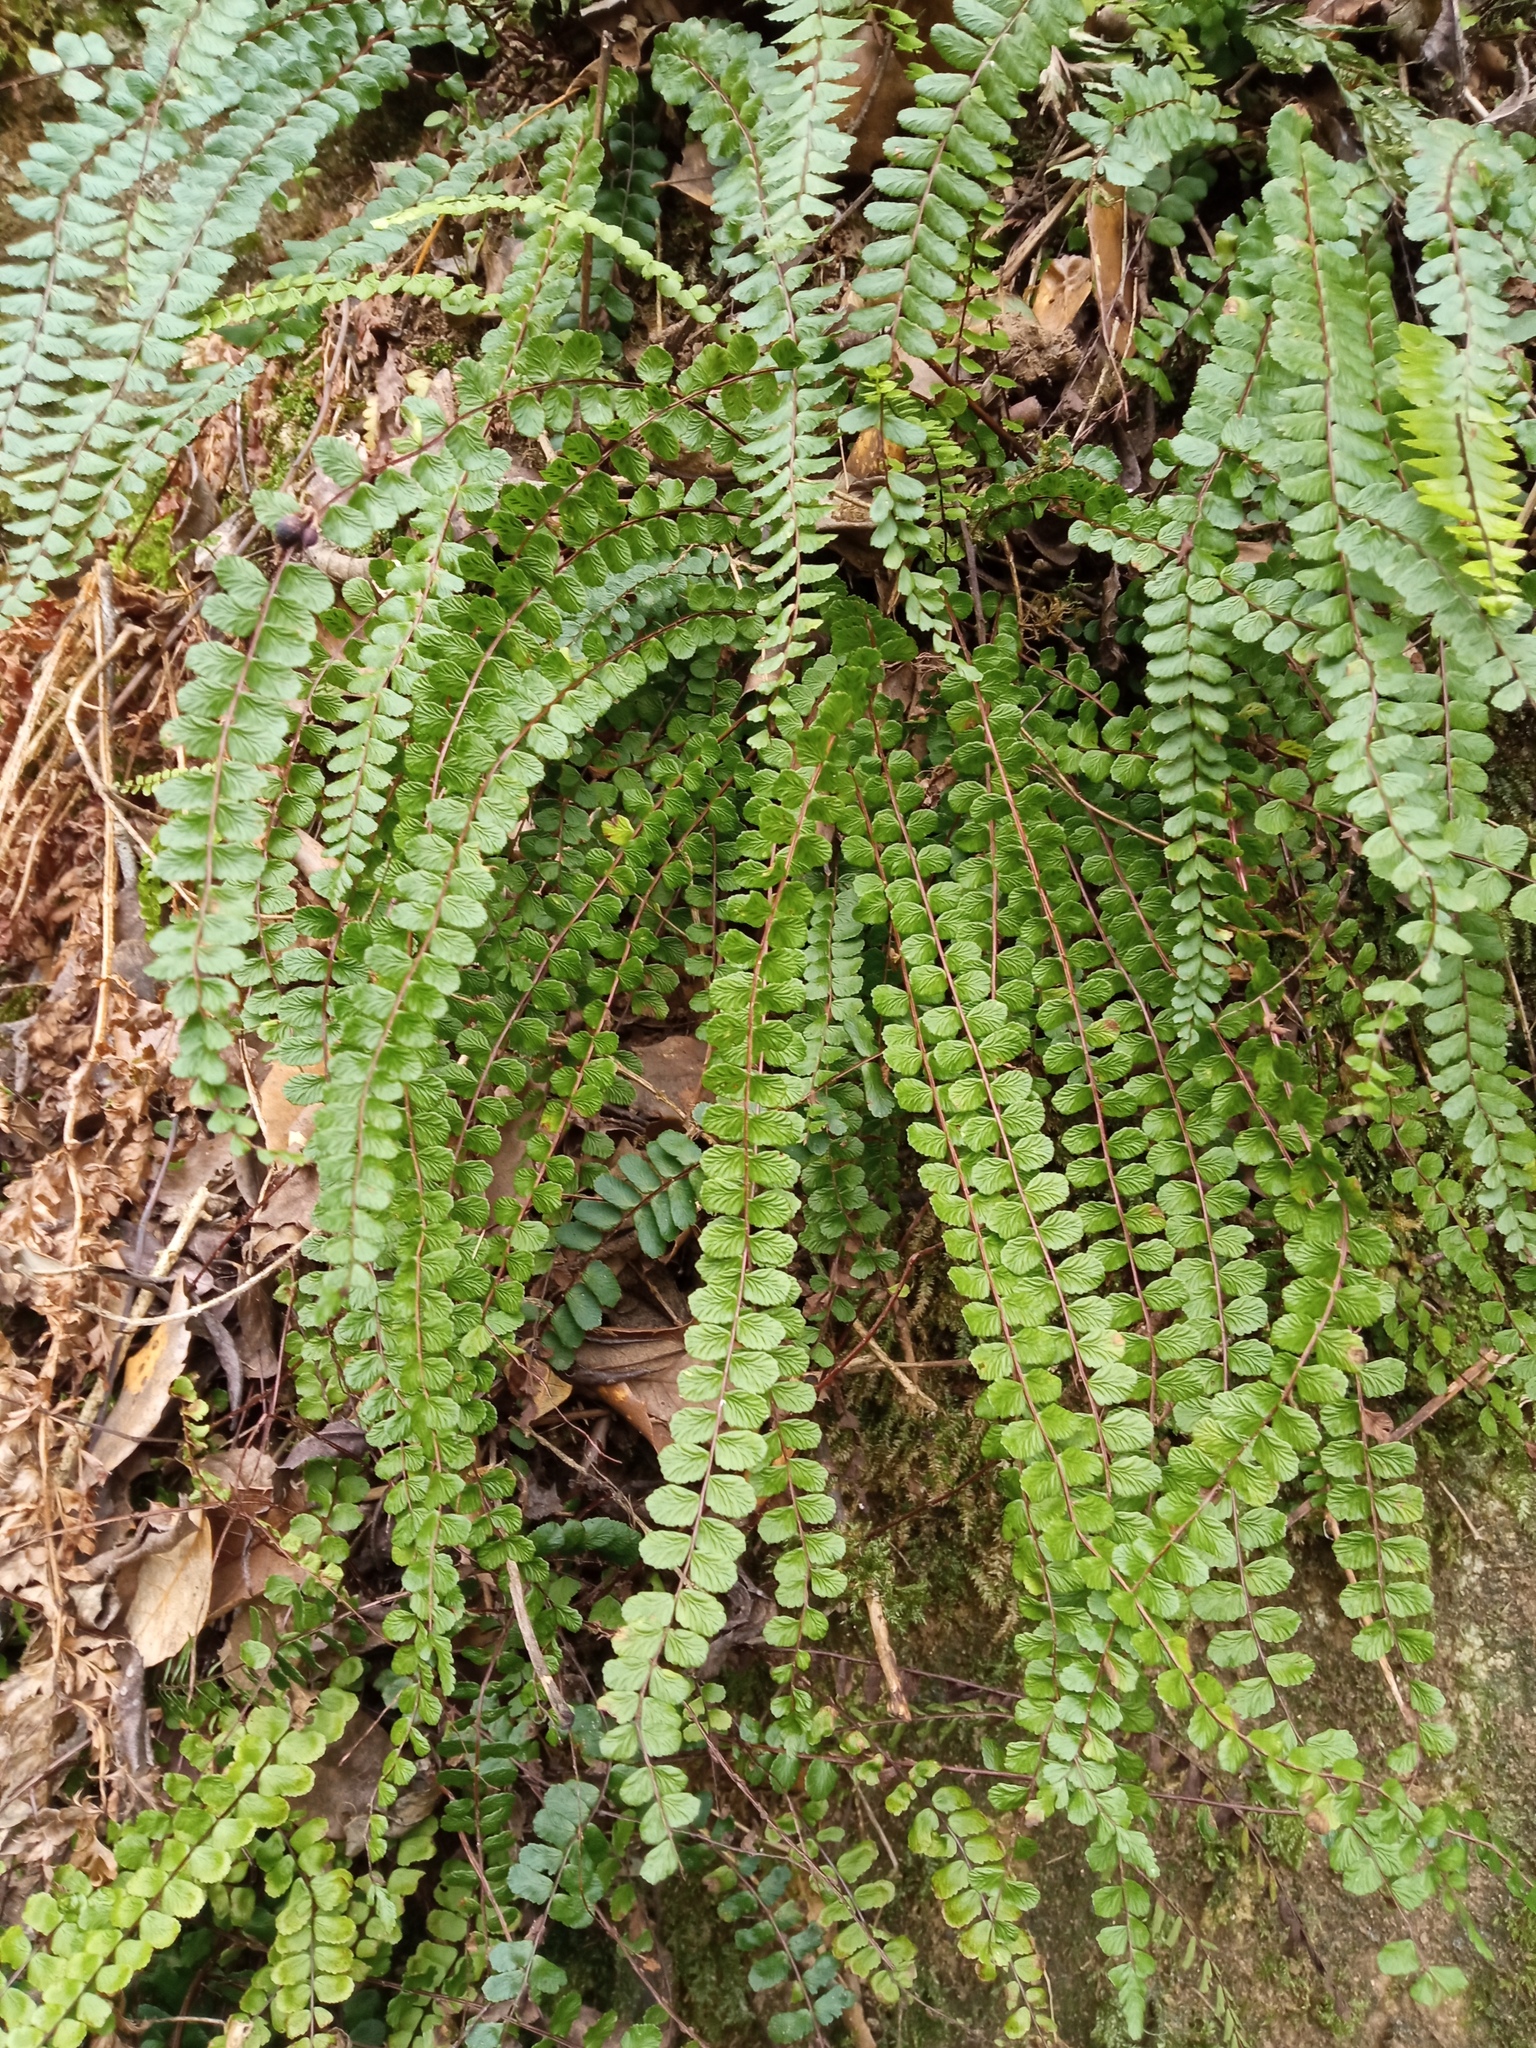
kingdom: Plantae
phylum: Tracheophyta
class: Polypodiopsida
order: Polypodiales
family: Aspleniaceae
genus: Asplenium
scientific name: Asplenium trichomanes
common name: Maidenhair spleenwort
